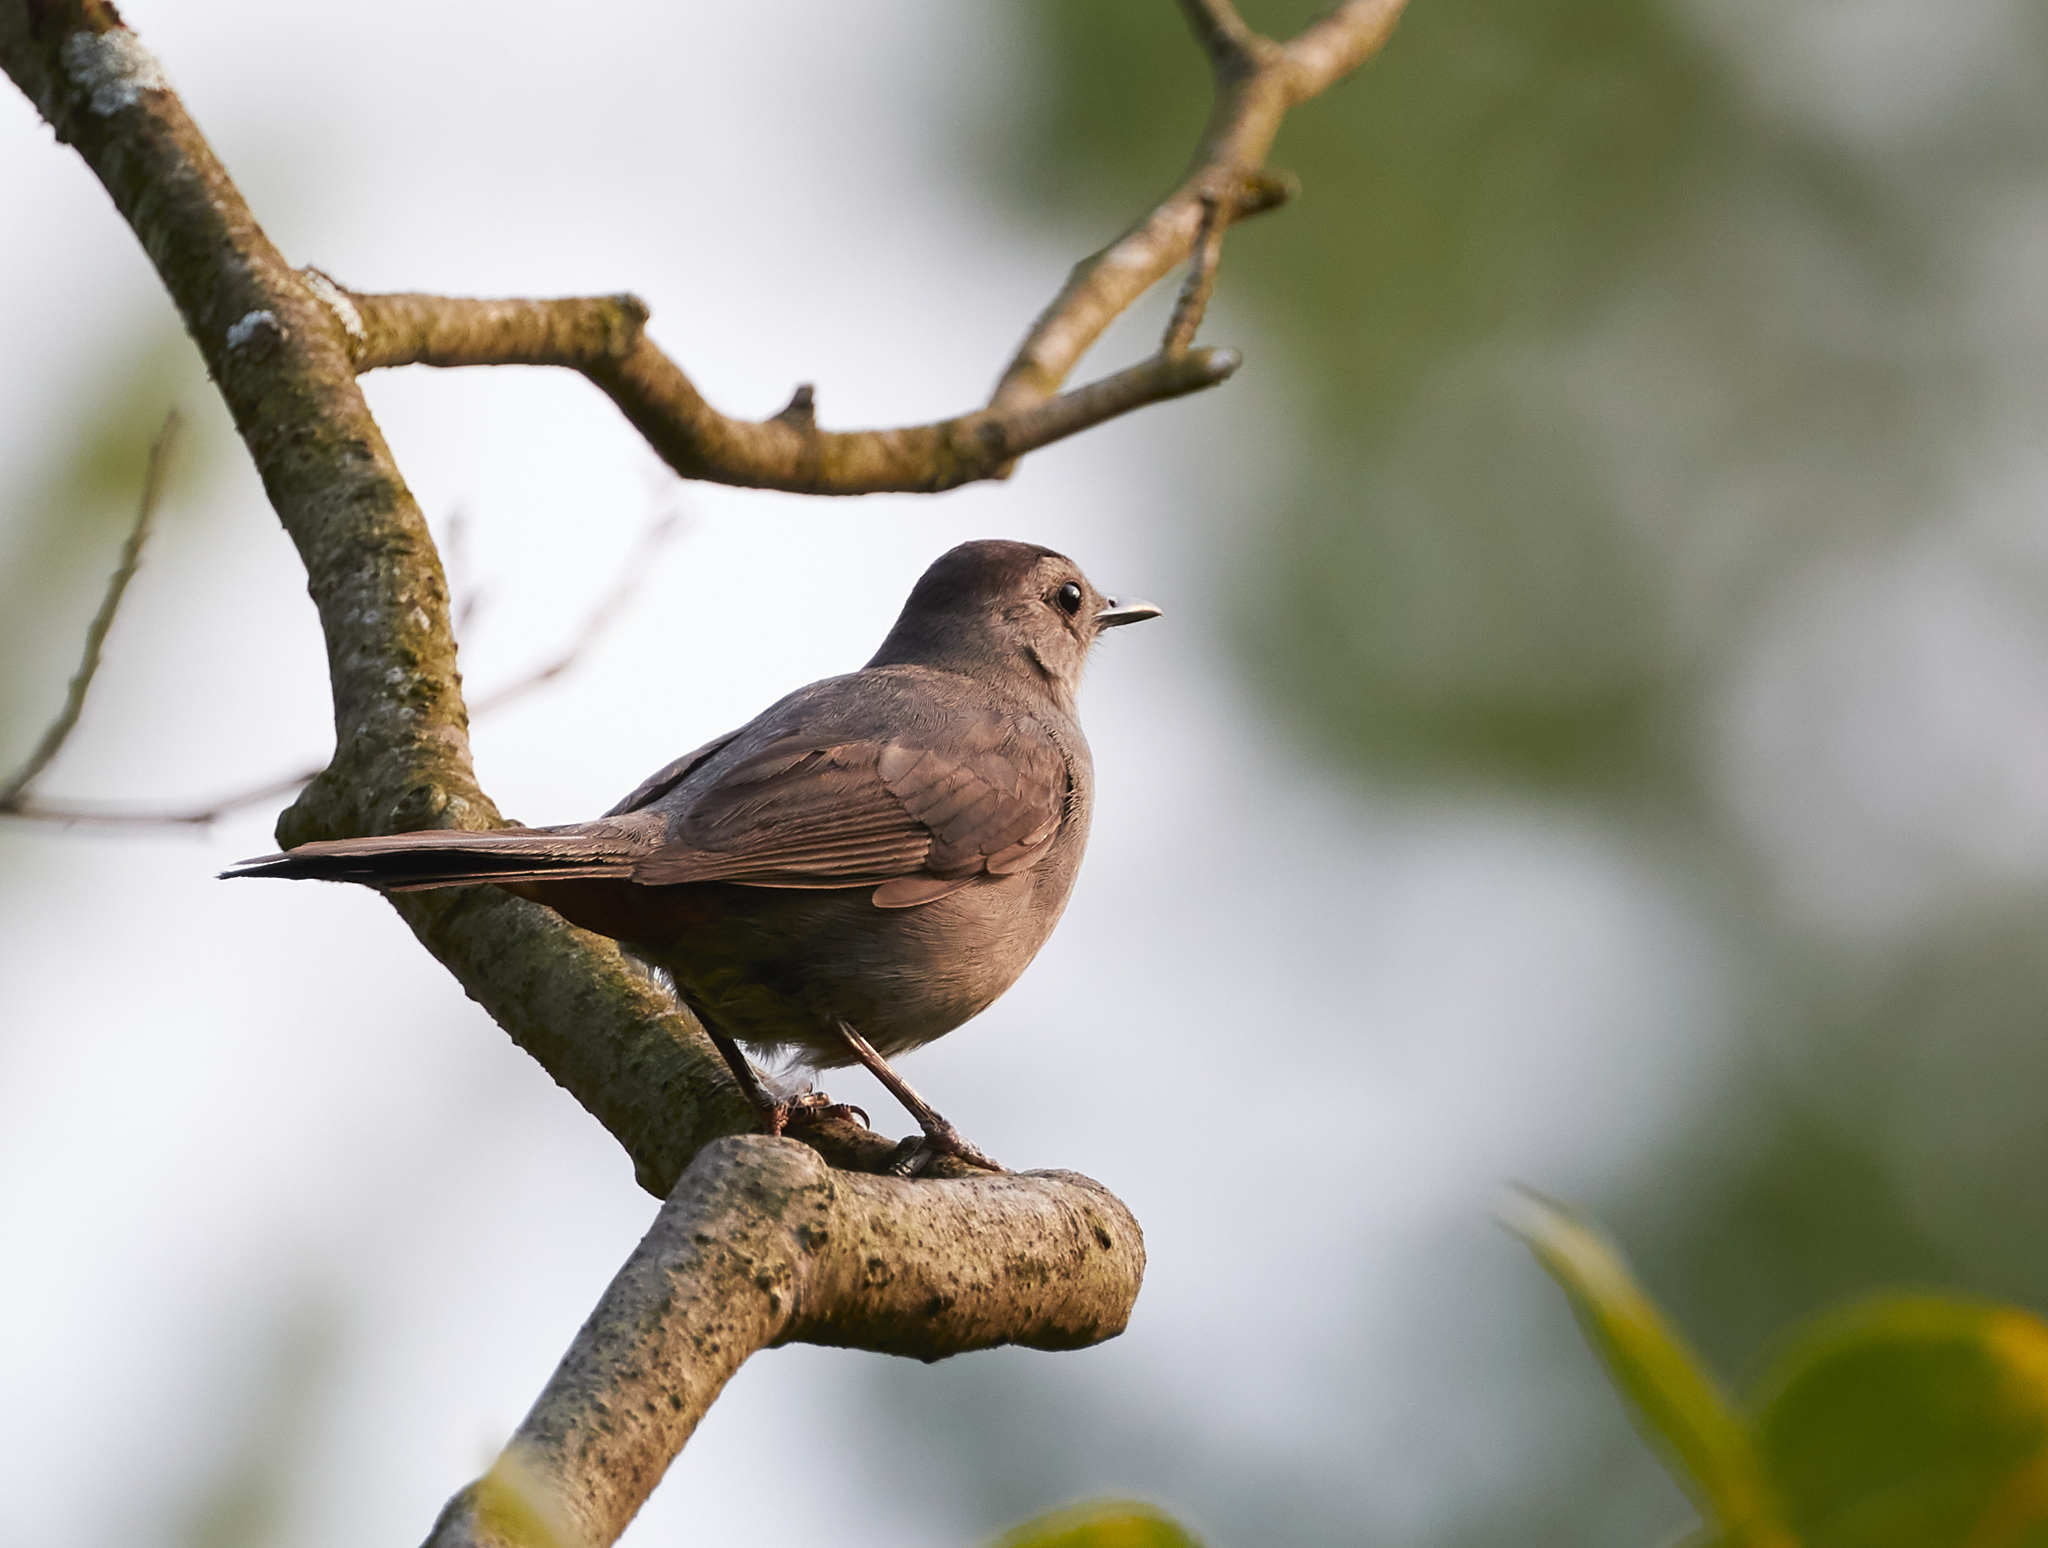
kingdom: Animalia
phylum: Chordata
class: Aves
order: Passeriformes
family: Mimidae
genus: Dumetella
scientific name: Dumetella carolinensis
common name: Gray catbird
